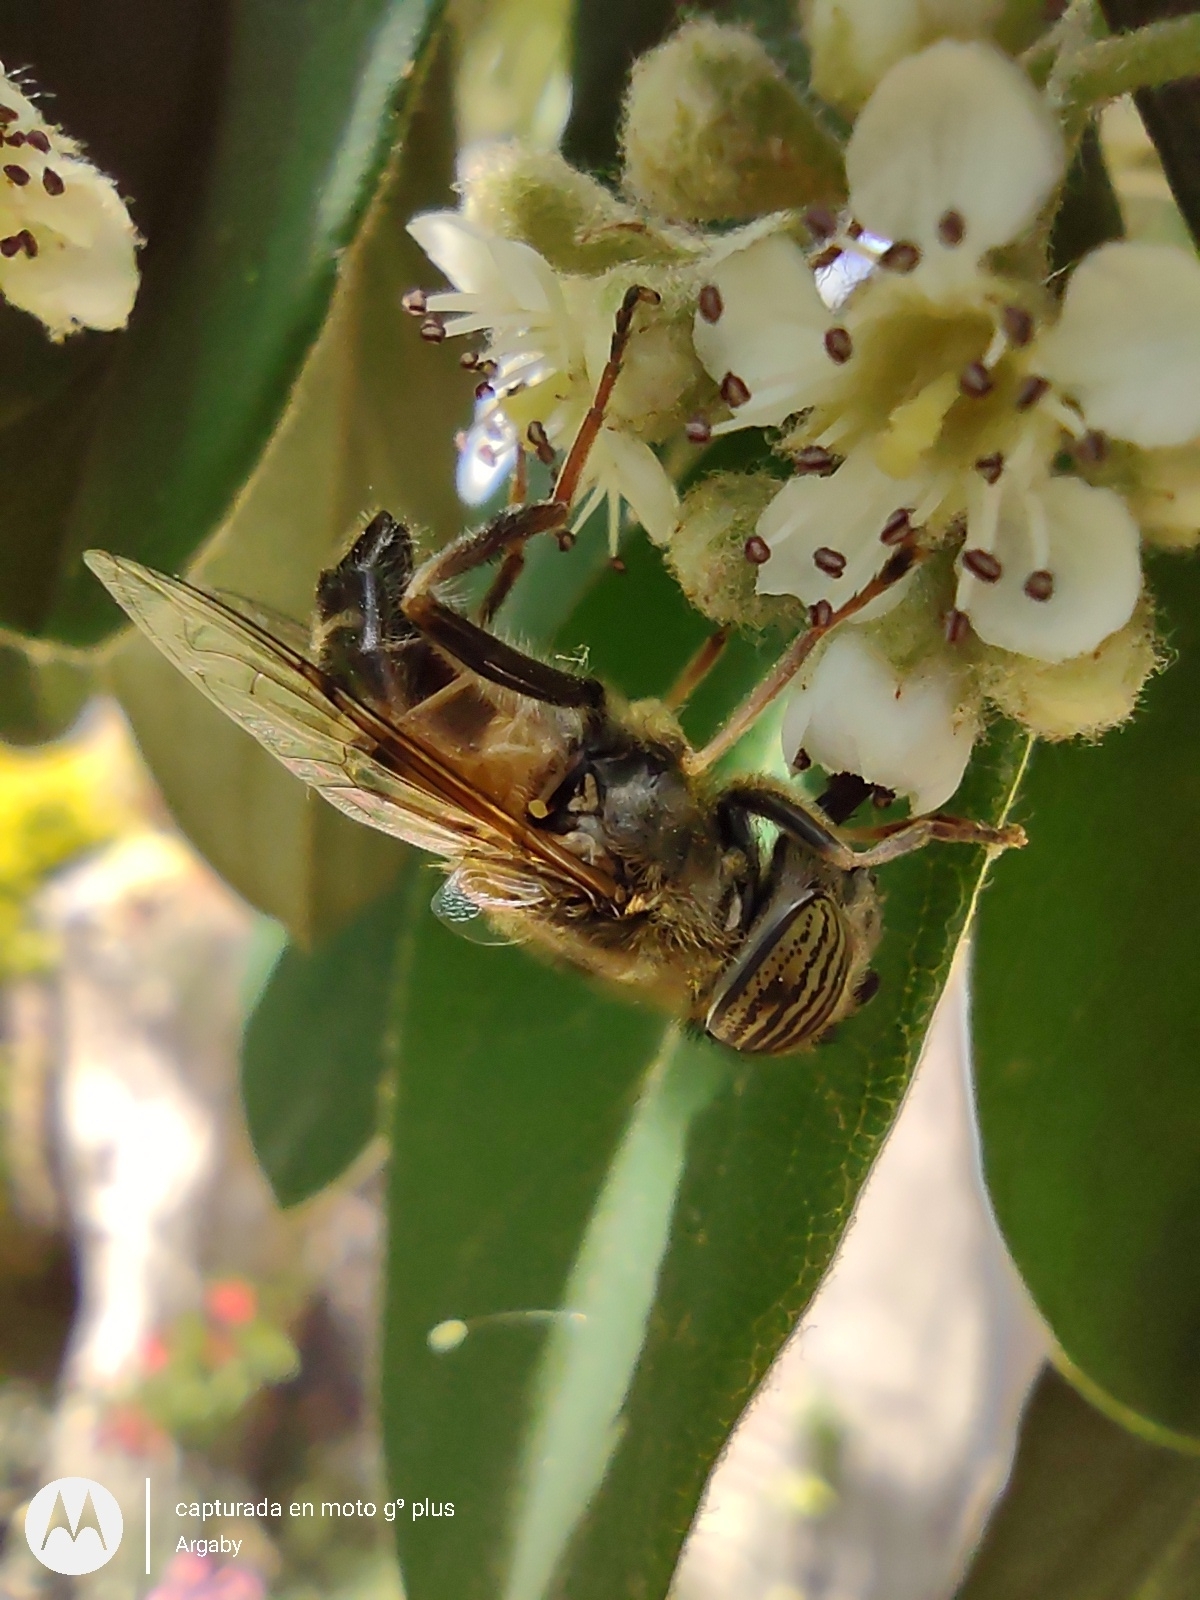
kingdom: Animalia
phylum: Arthropoda
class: Insecta
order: Diptera
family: Syrphidae
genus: Eristalinus
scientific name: Eristalinus taeniops
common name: Syrphid fly
